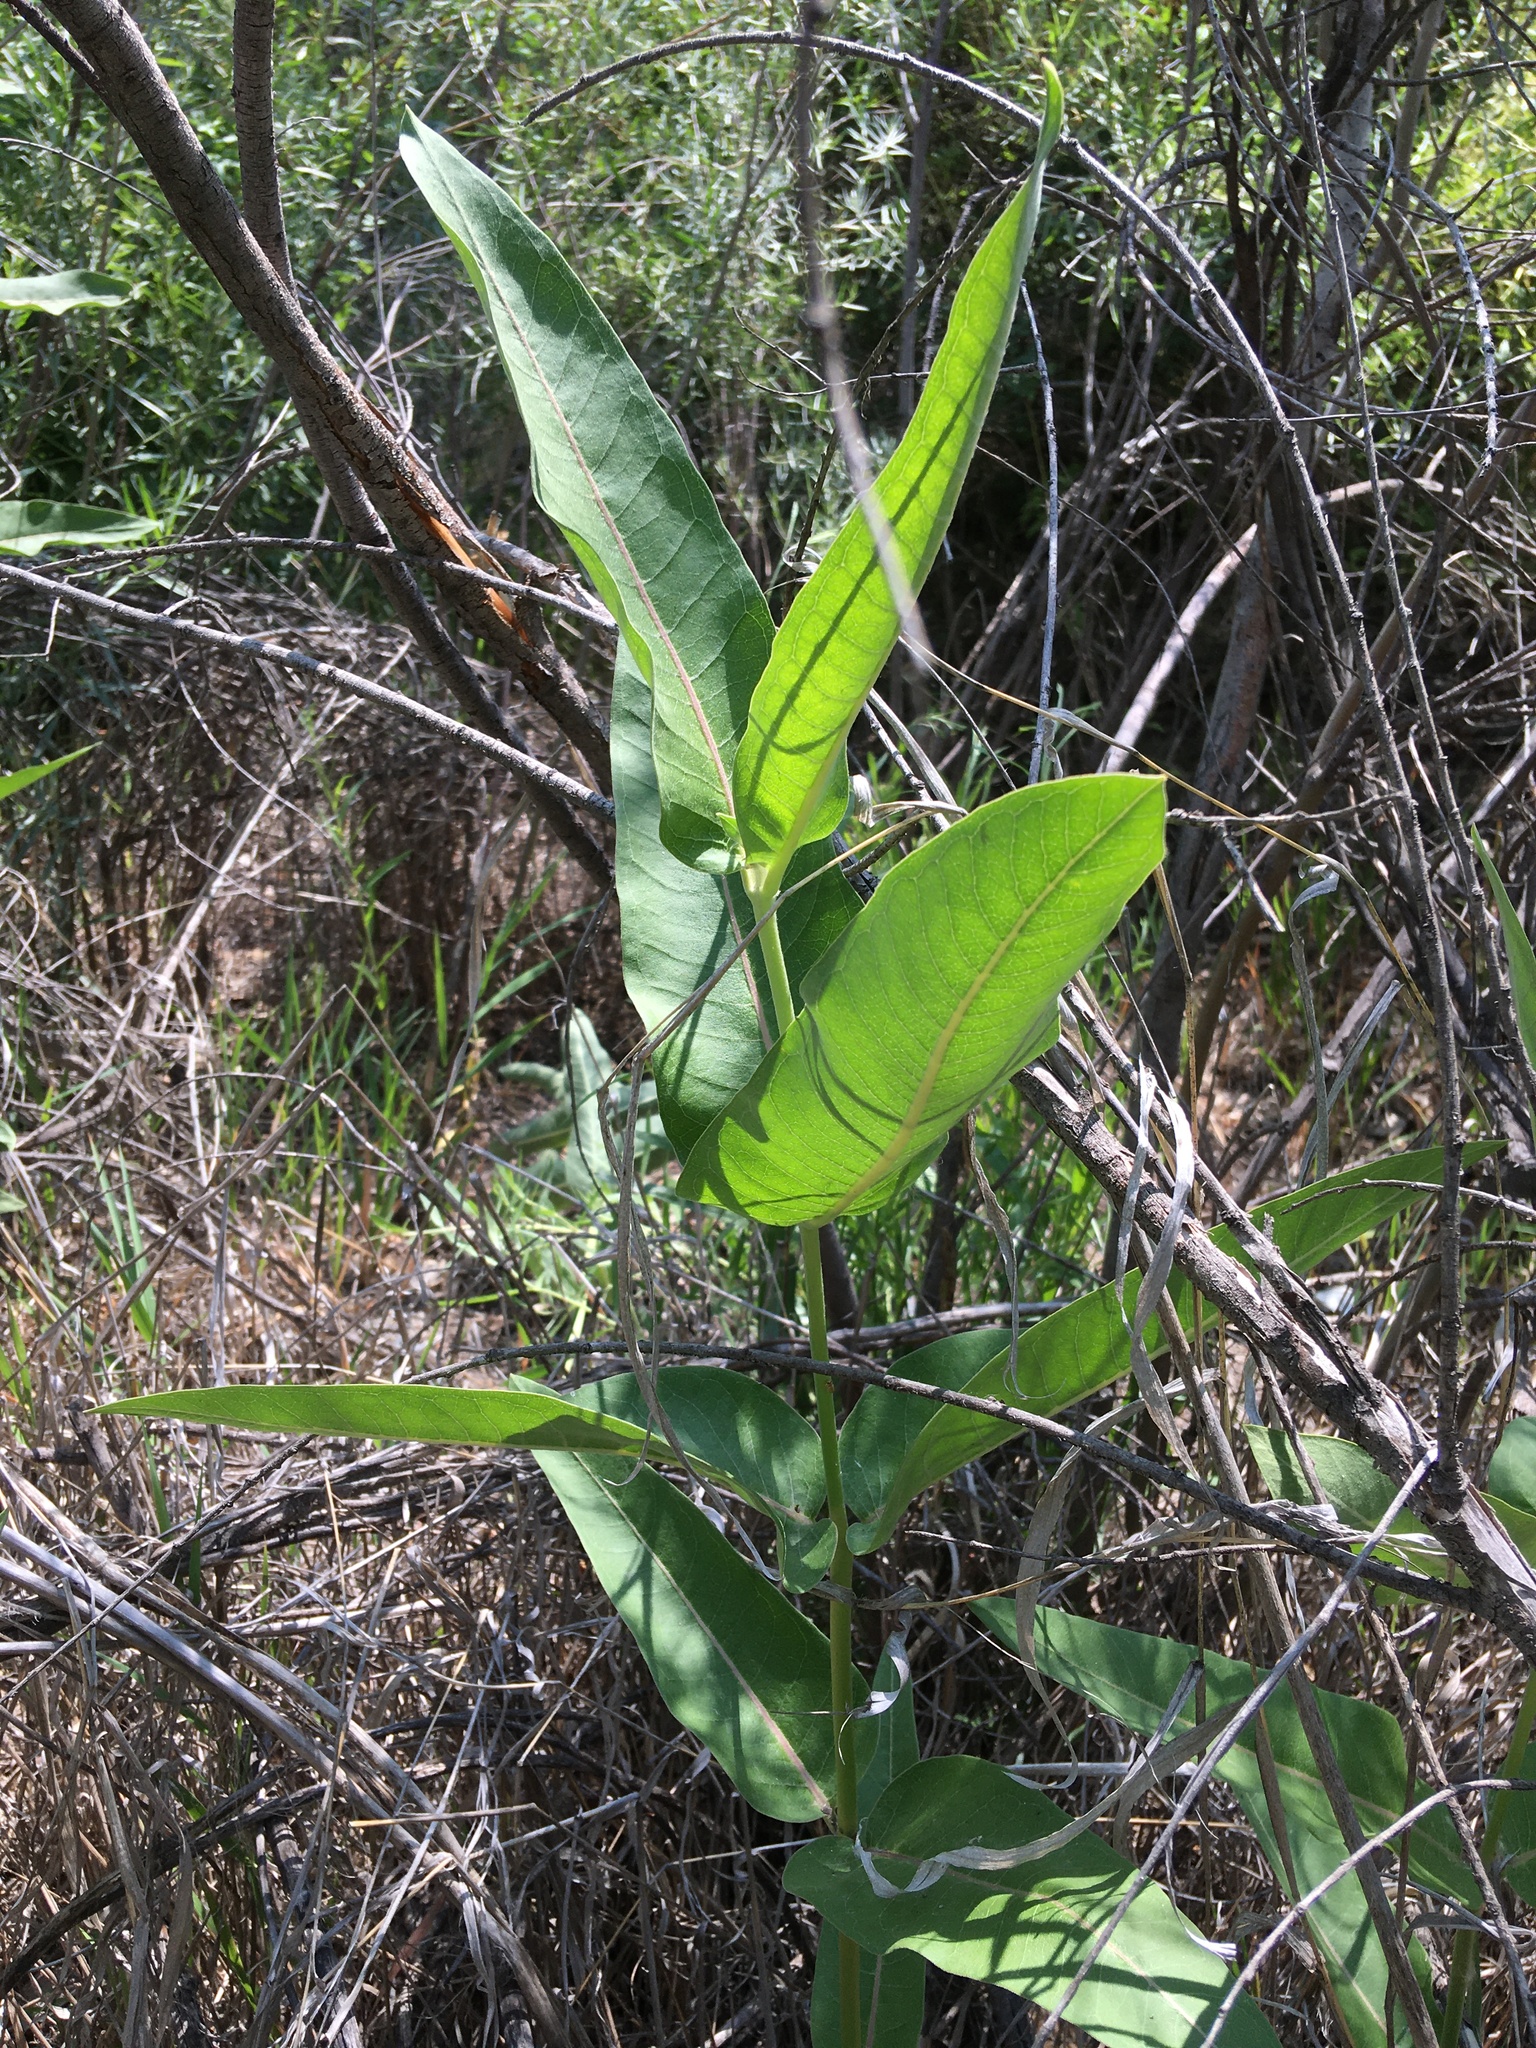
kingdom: Plantae
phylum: Tracheophyta
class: Magnoliopsida
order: Gentianales
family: Apocynaceae
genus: Asclepias
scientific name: Asclepias speciosa
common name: Showy milkweed
